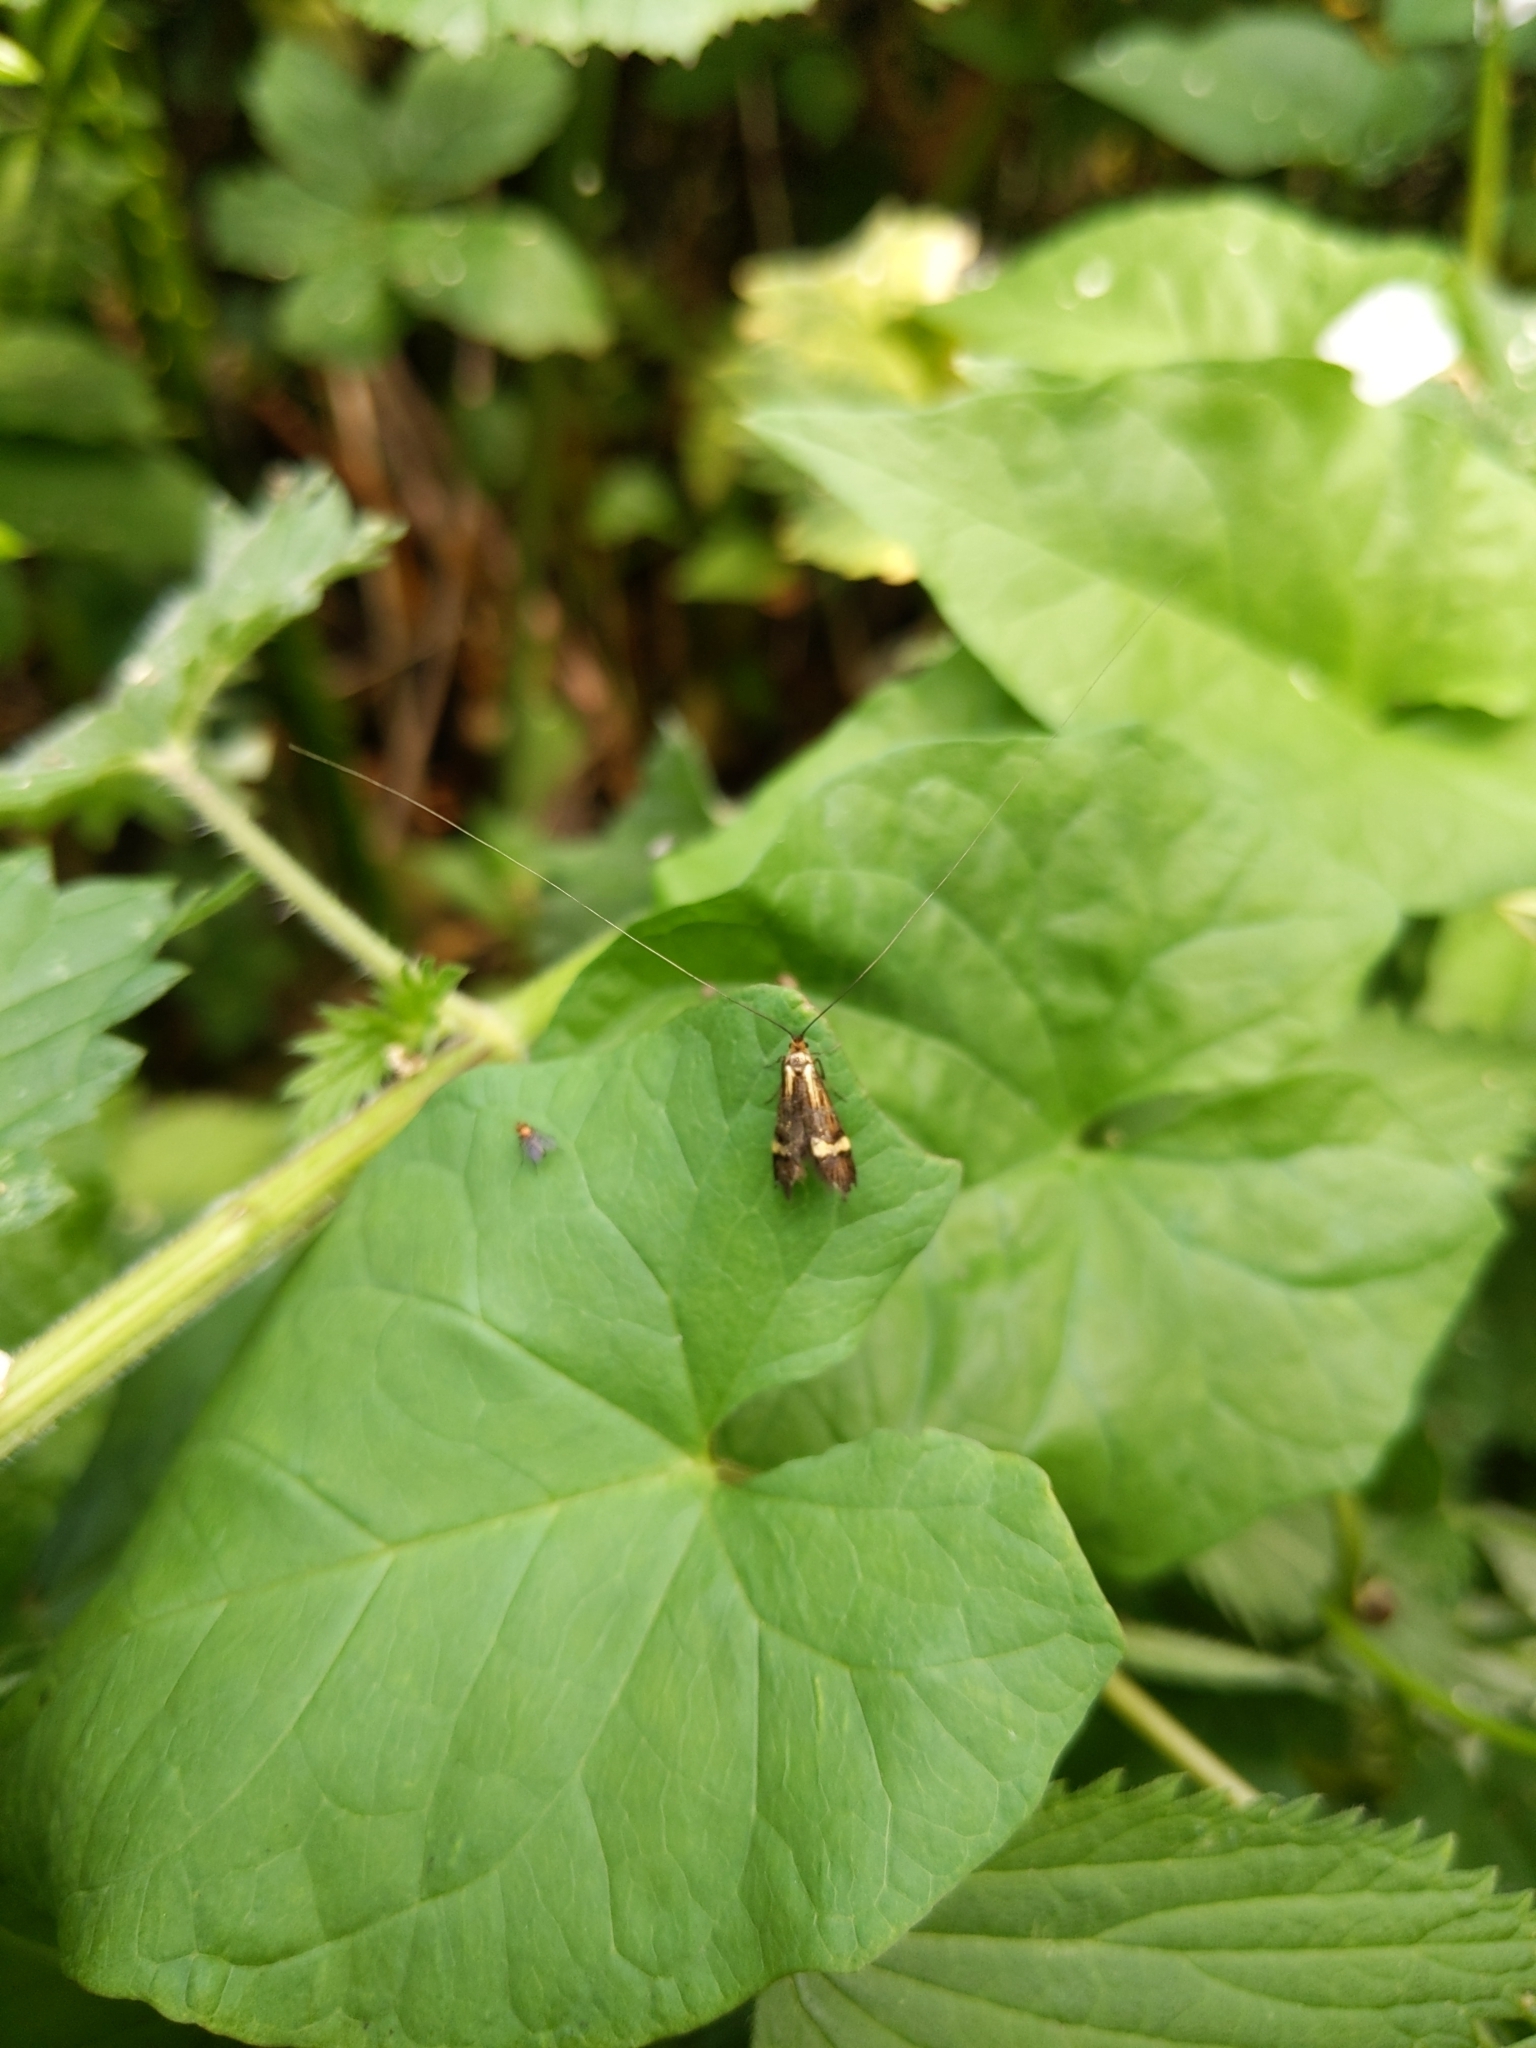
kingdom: Animalia
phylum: Arthropoda
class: Insecta
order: Lepidoptera
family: Adelidae
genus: Nemophora
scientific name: Nemophora degeerella
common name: Yellow-barred long-horn
